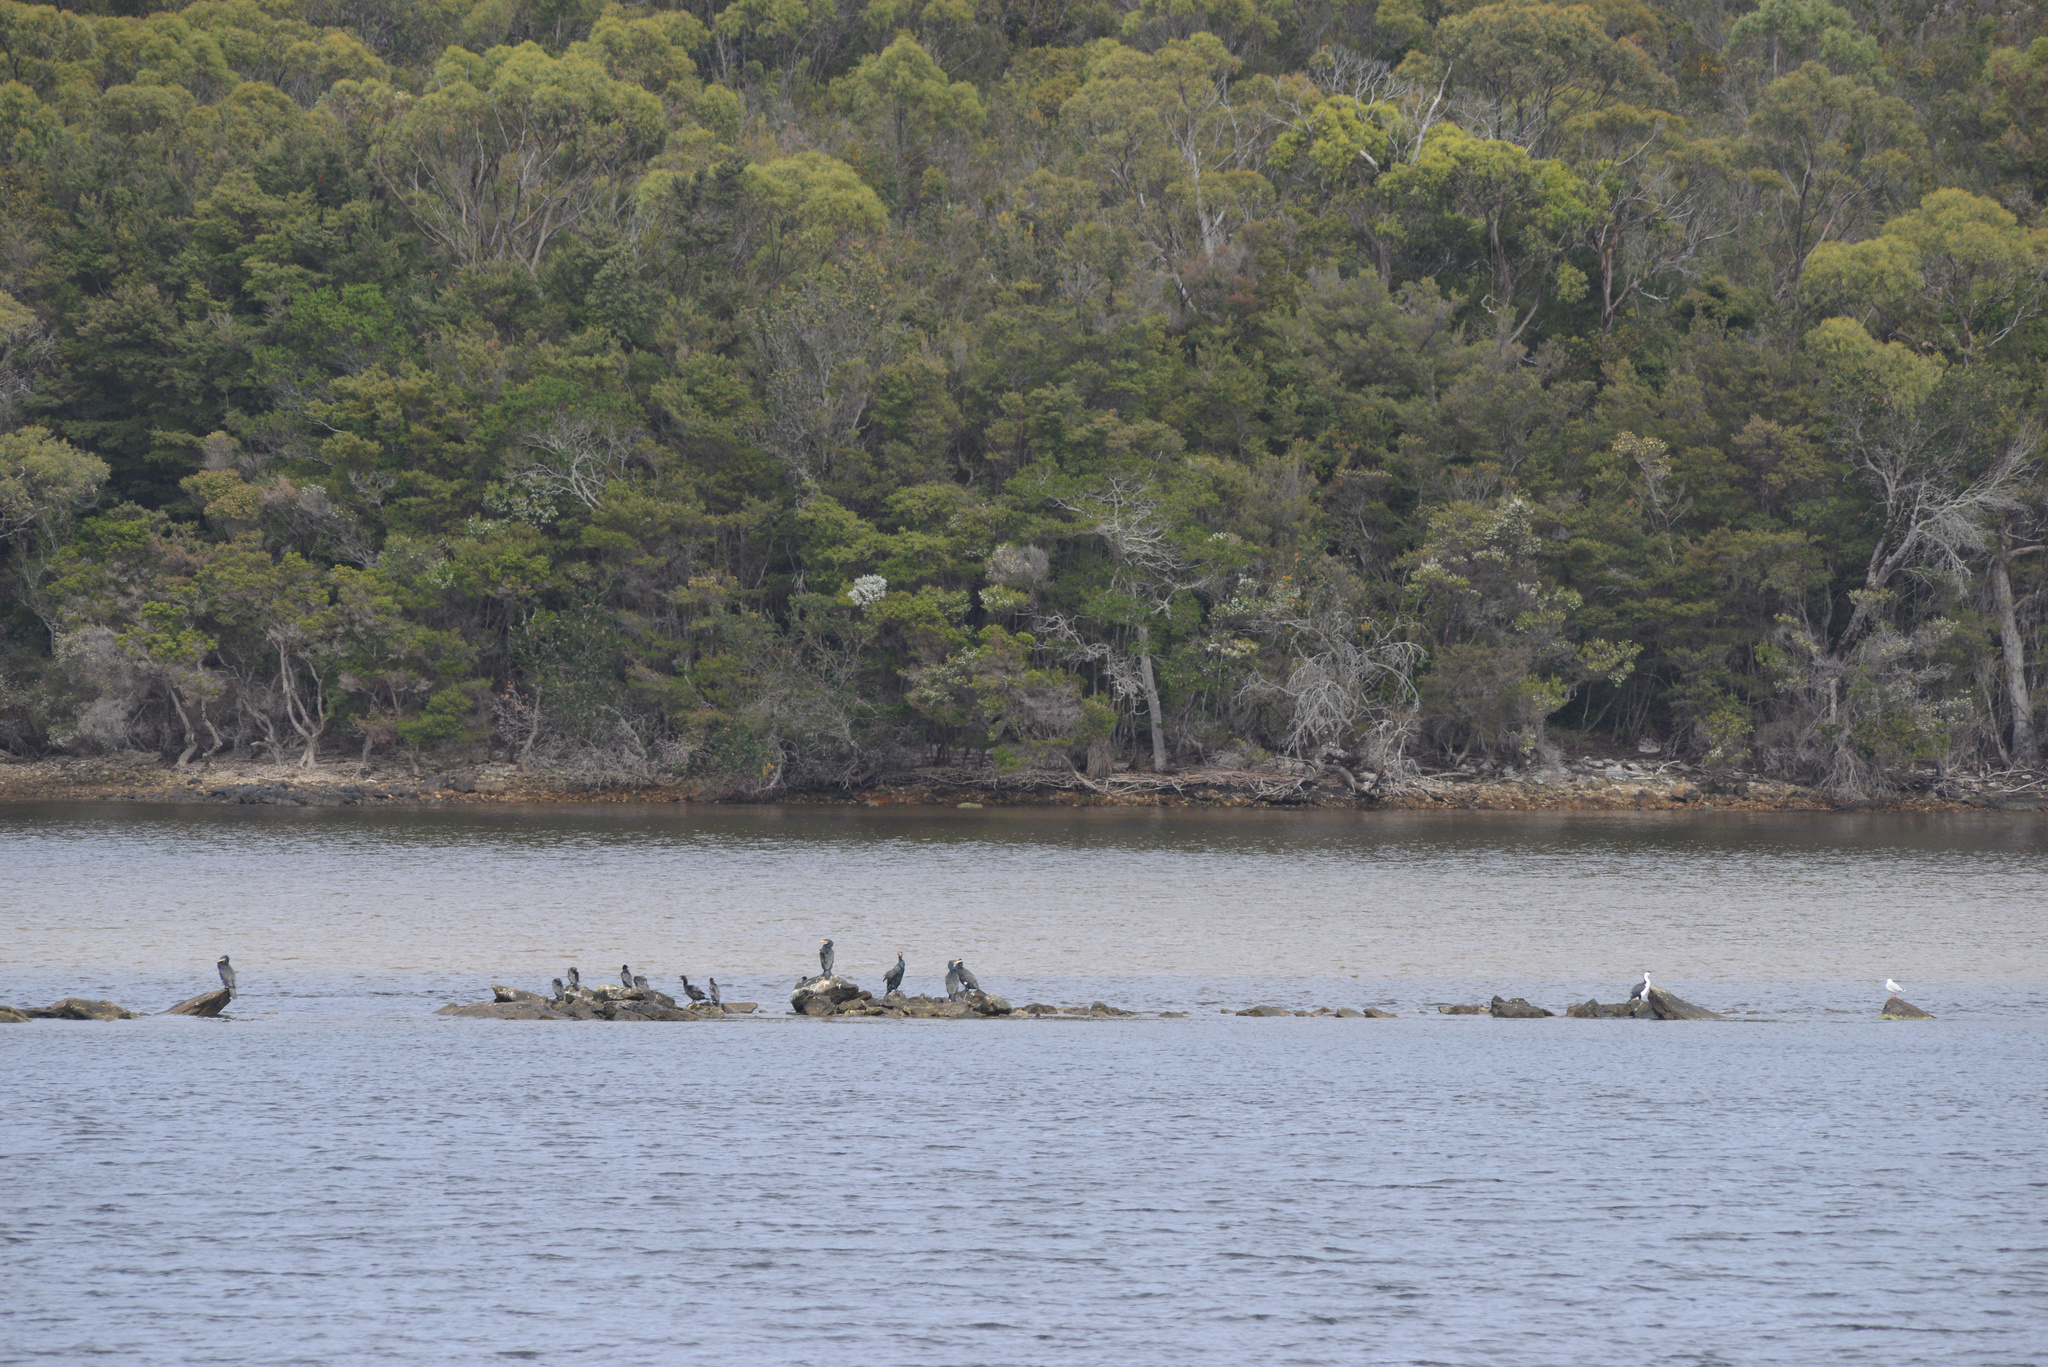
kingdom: Animalia
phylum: Chordata
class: Aves
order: Suliformes
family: Phalacrocoracidae
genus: Phalacrocorax
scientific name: Phalacrocorax sulcirostris
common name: Little black cormorant
